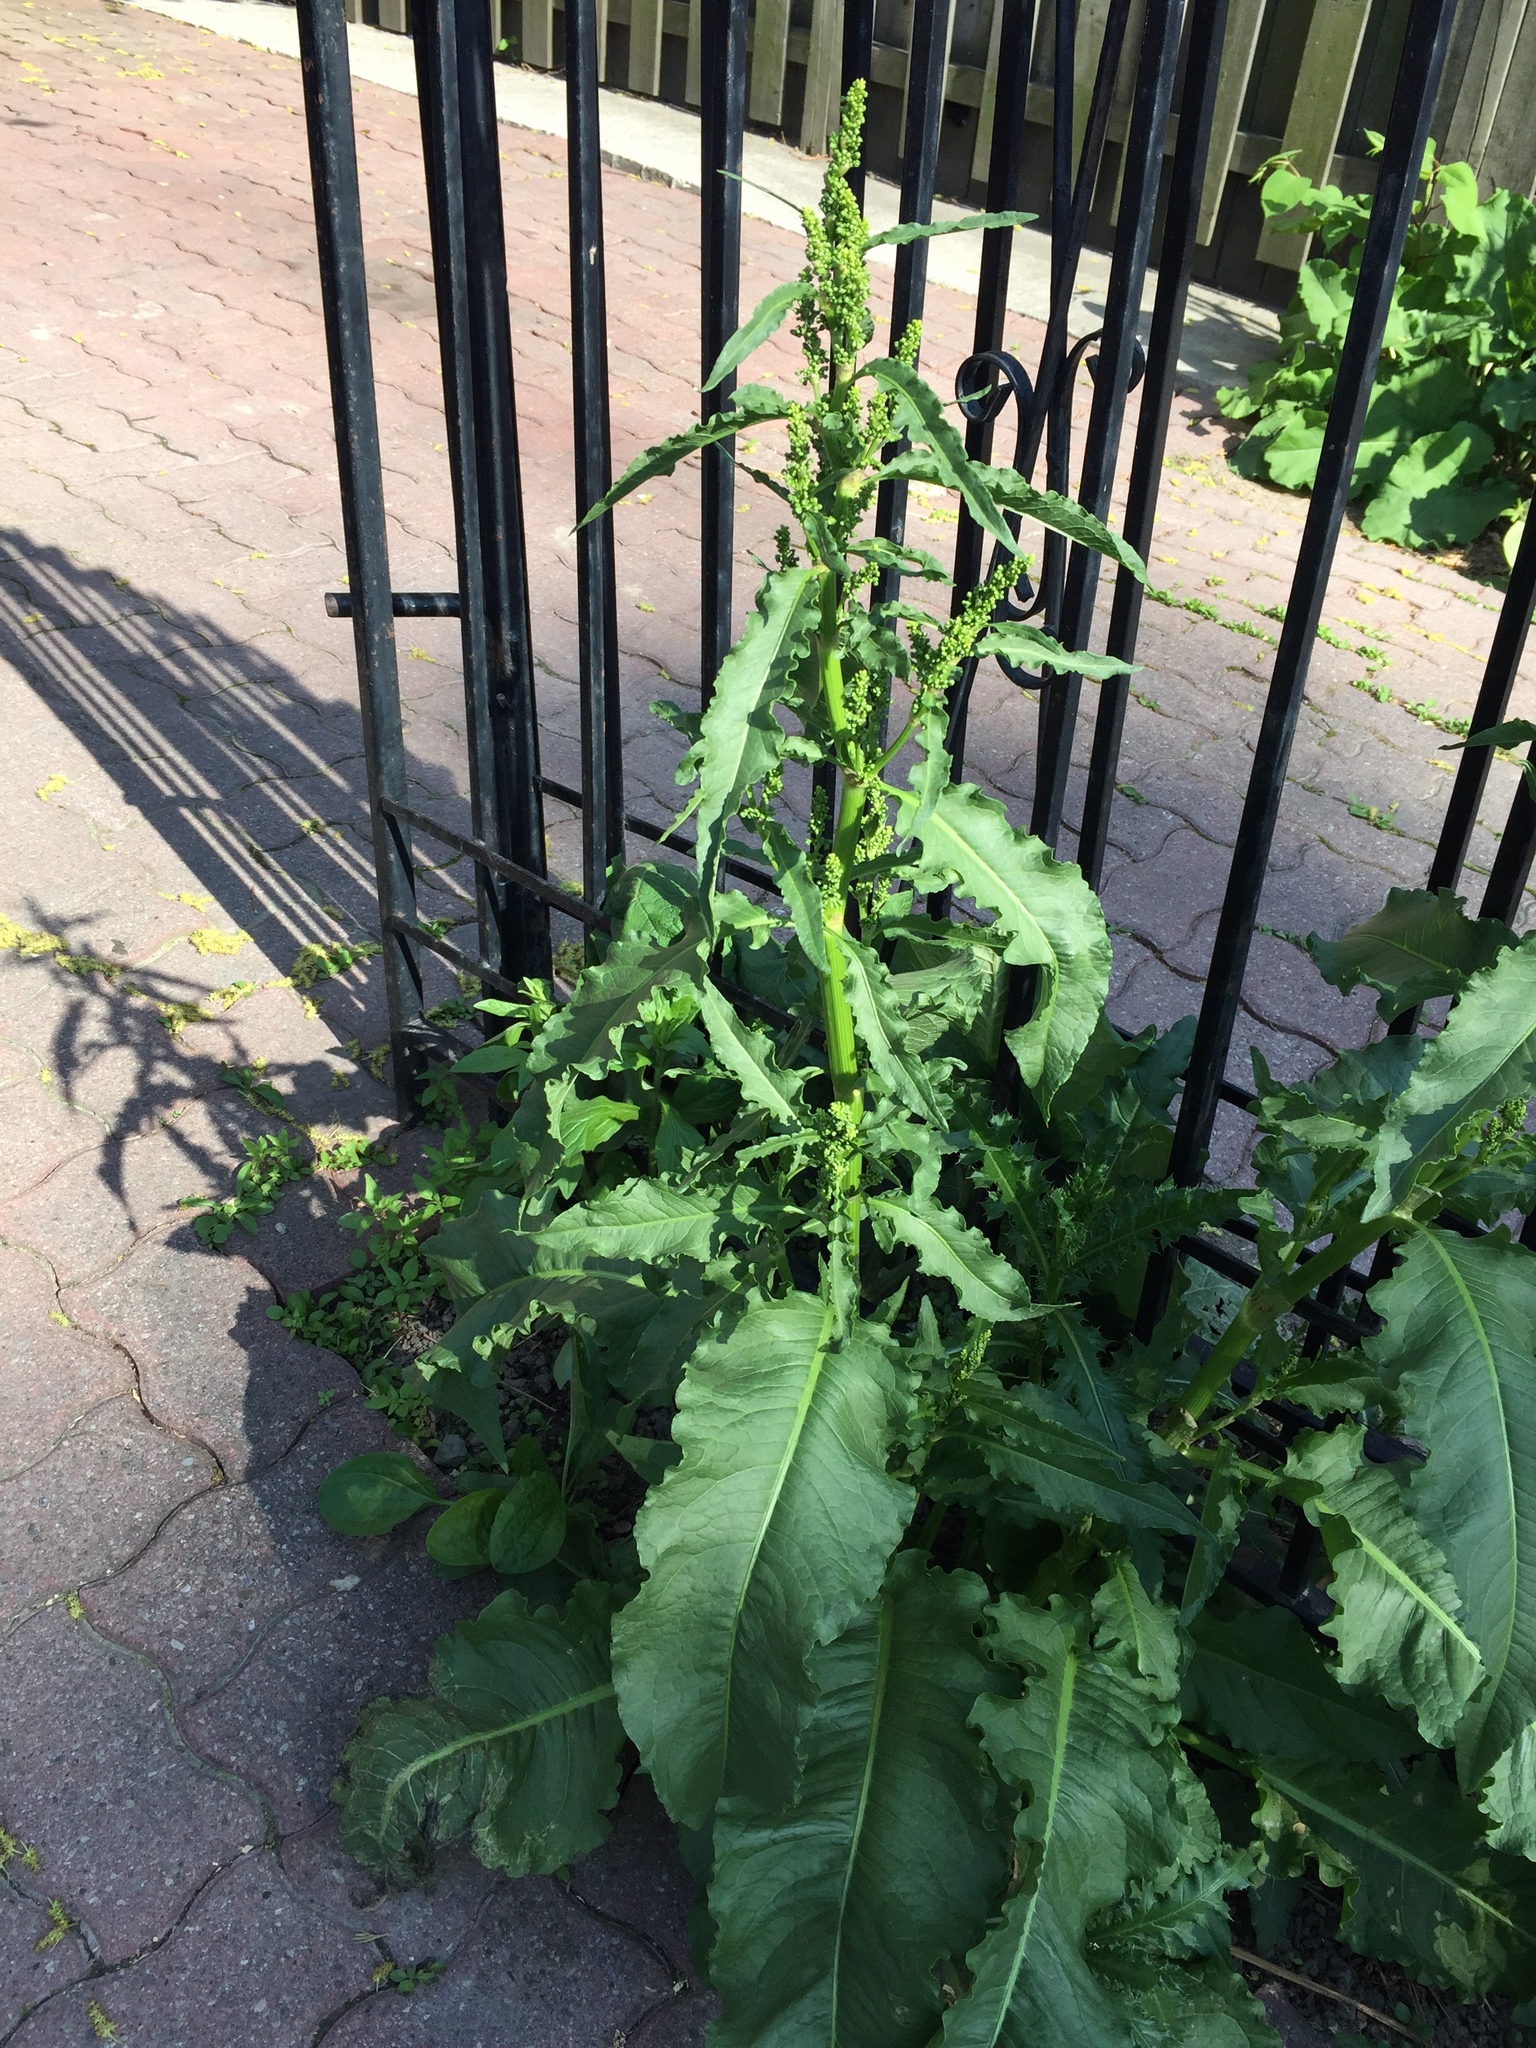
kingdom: Plantae
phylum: Tracheophyta
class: Magnoliopsida
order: Caryophyllales
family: Polygonaceae
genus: Rumex
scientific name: Rumex crispus
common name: Curled dock
